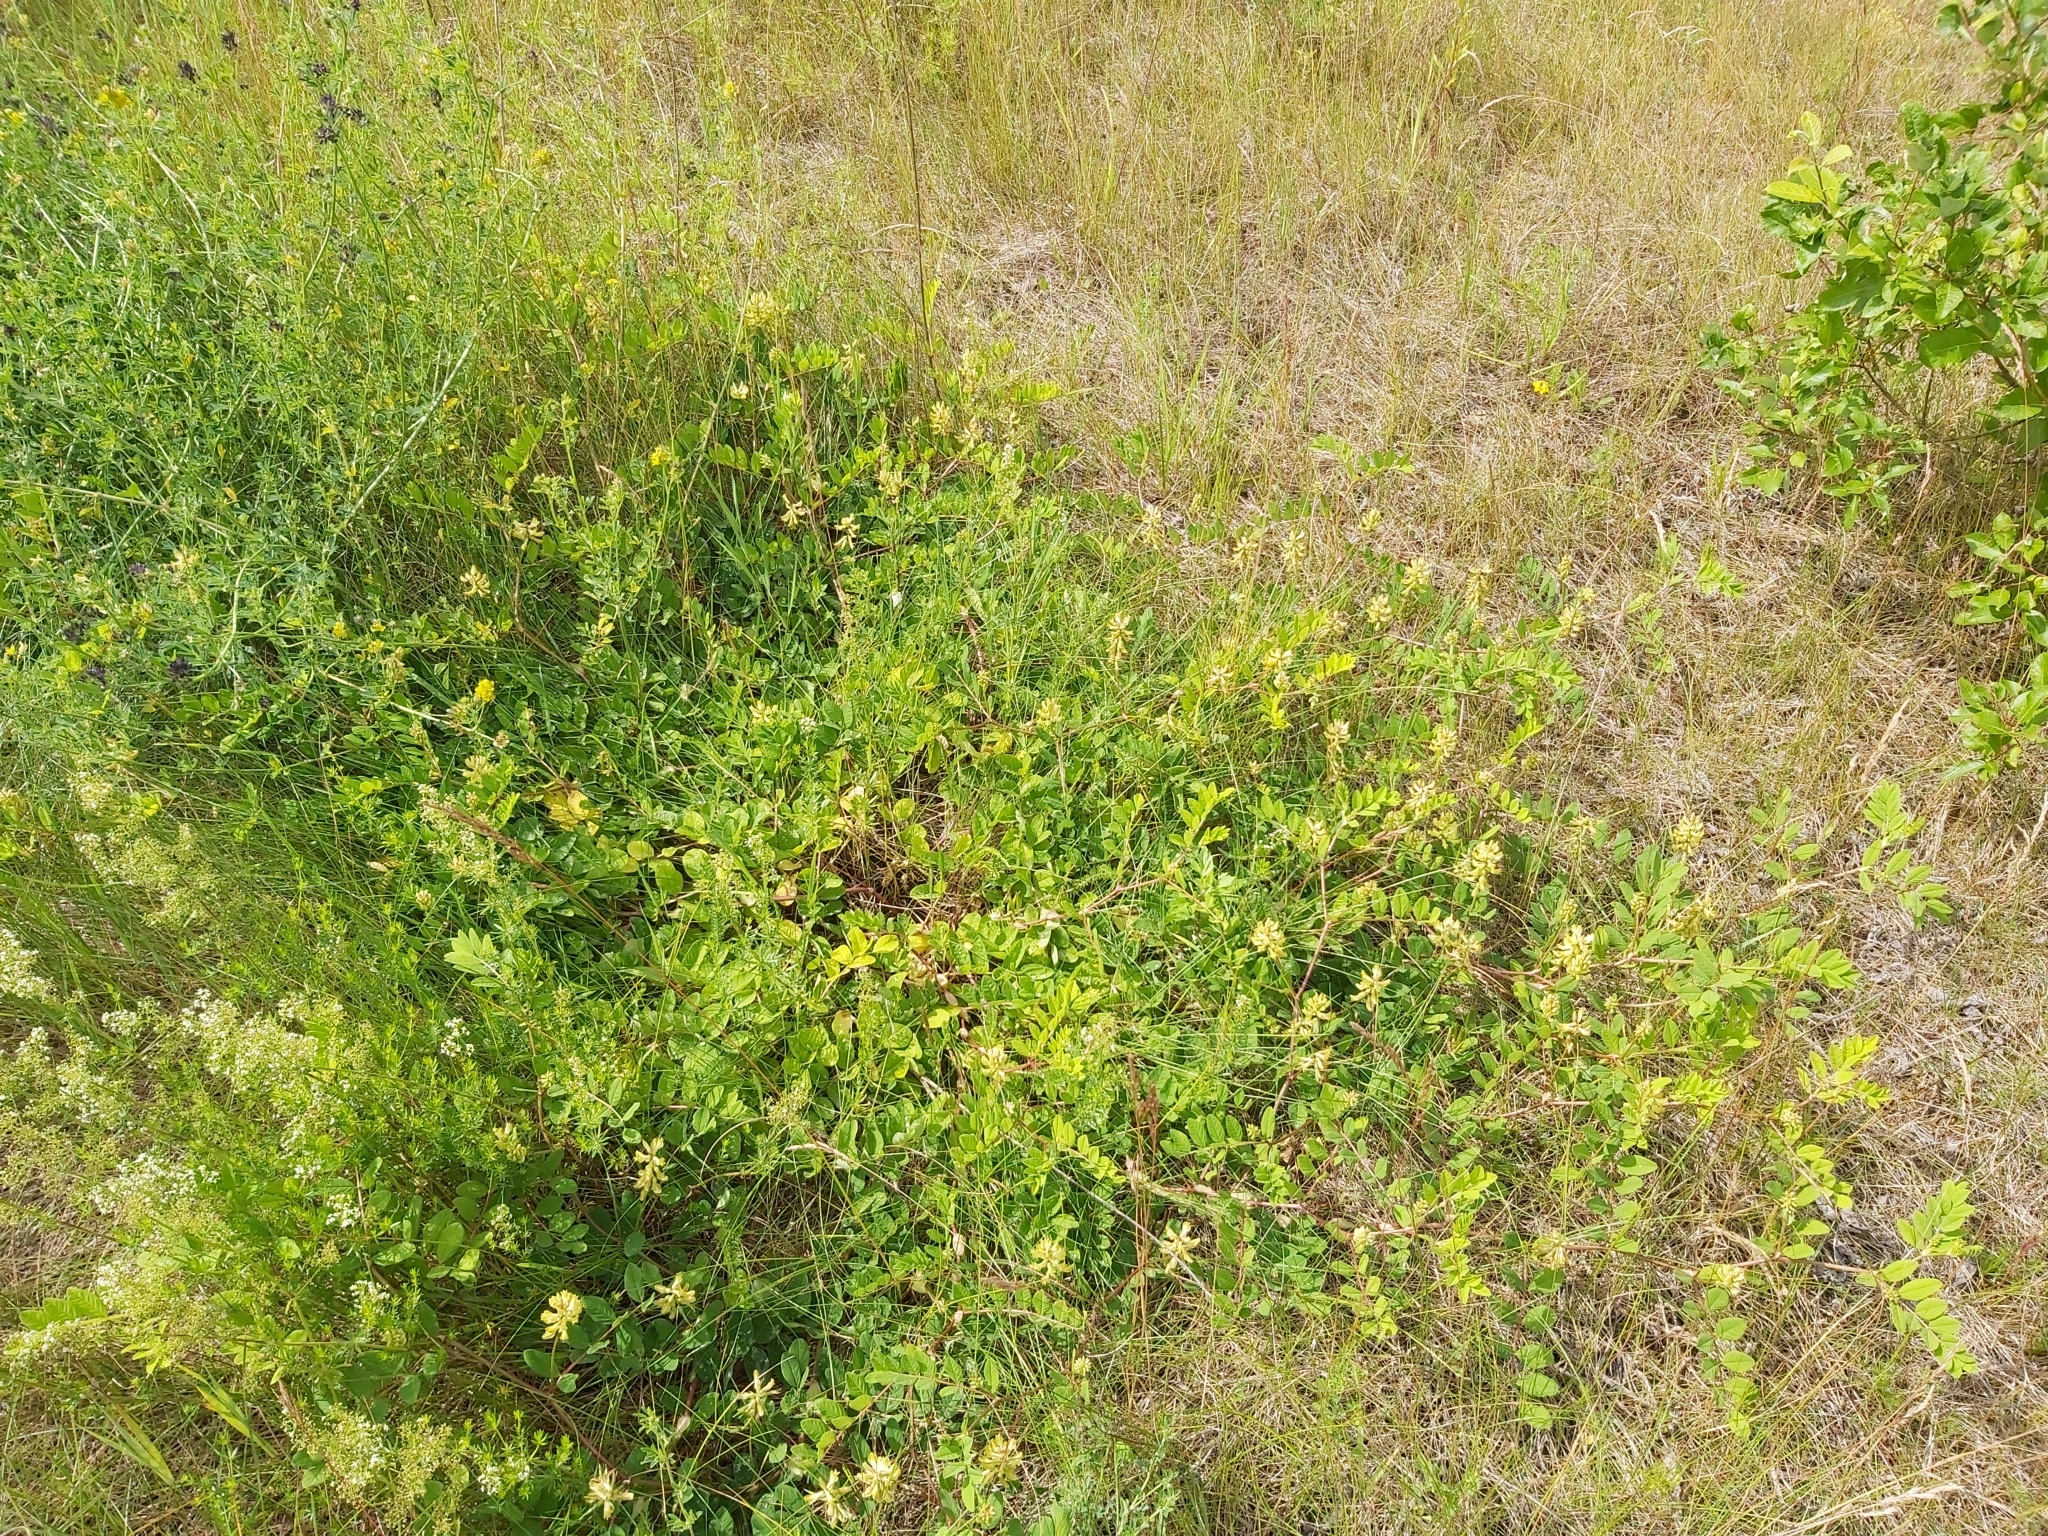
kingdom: Plantae
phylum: Tracheophyta
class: Magnoliopsida
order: Fabales
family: Fabaceae
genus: Astragalus
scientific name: Astragalus glycyphyllos
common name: Wild liquorice
